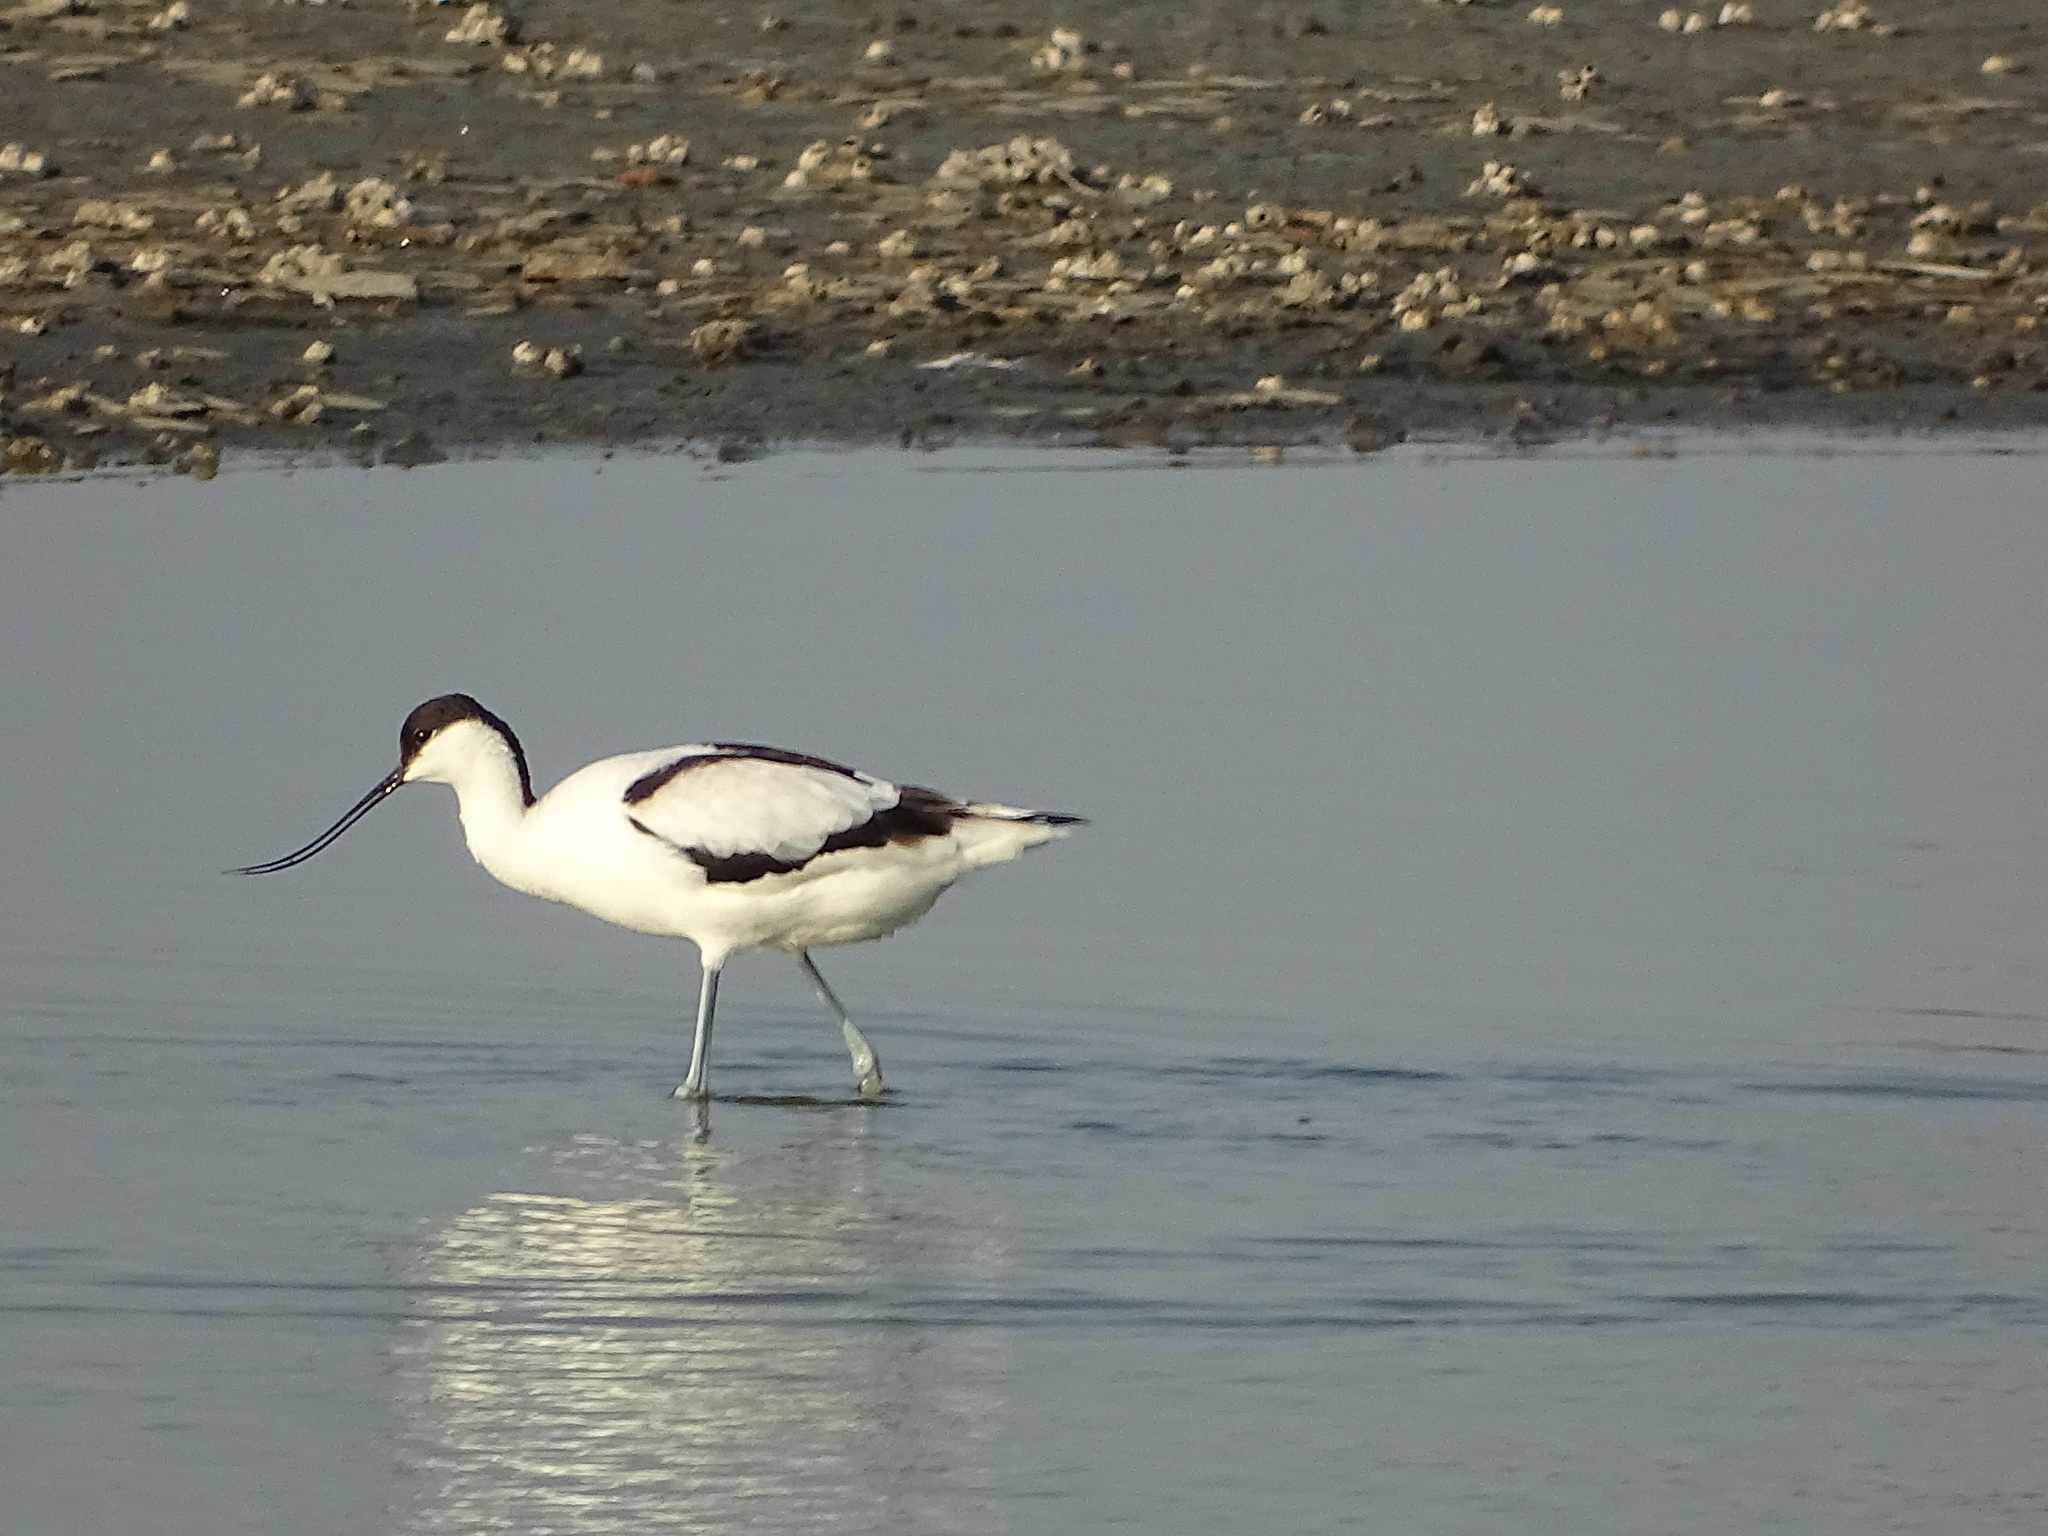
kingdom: Animalia
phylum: Chordata
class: Aves
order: Charadriiformes
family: Recurvirostridae
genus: Recurvirostra
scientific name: Recurvirostra avosetta
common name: Pied avocet
